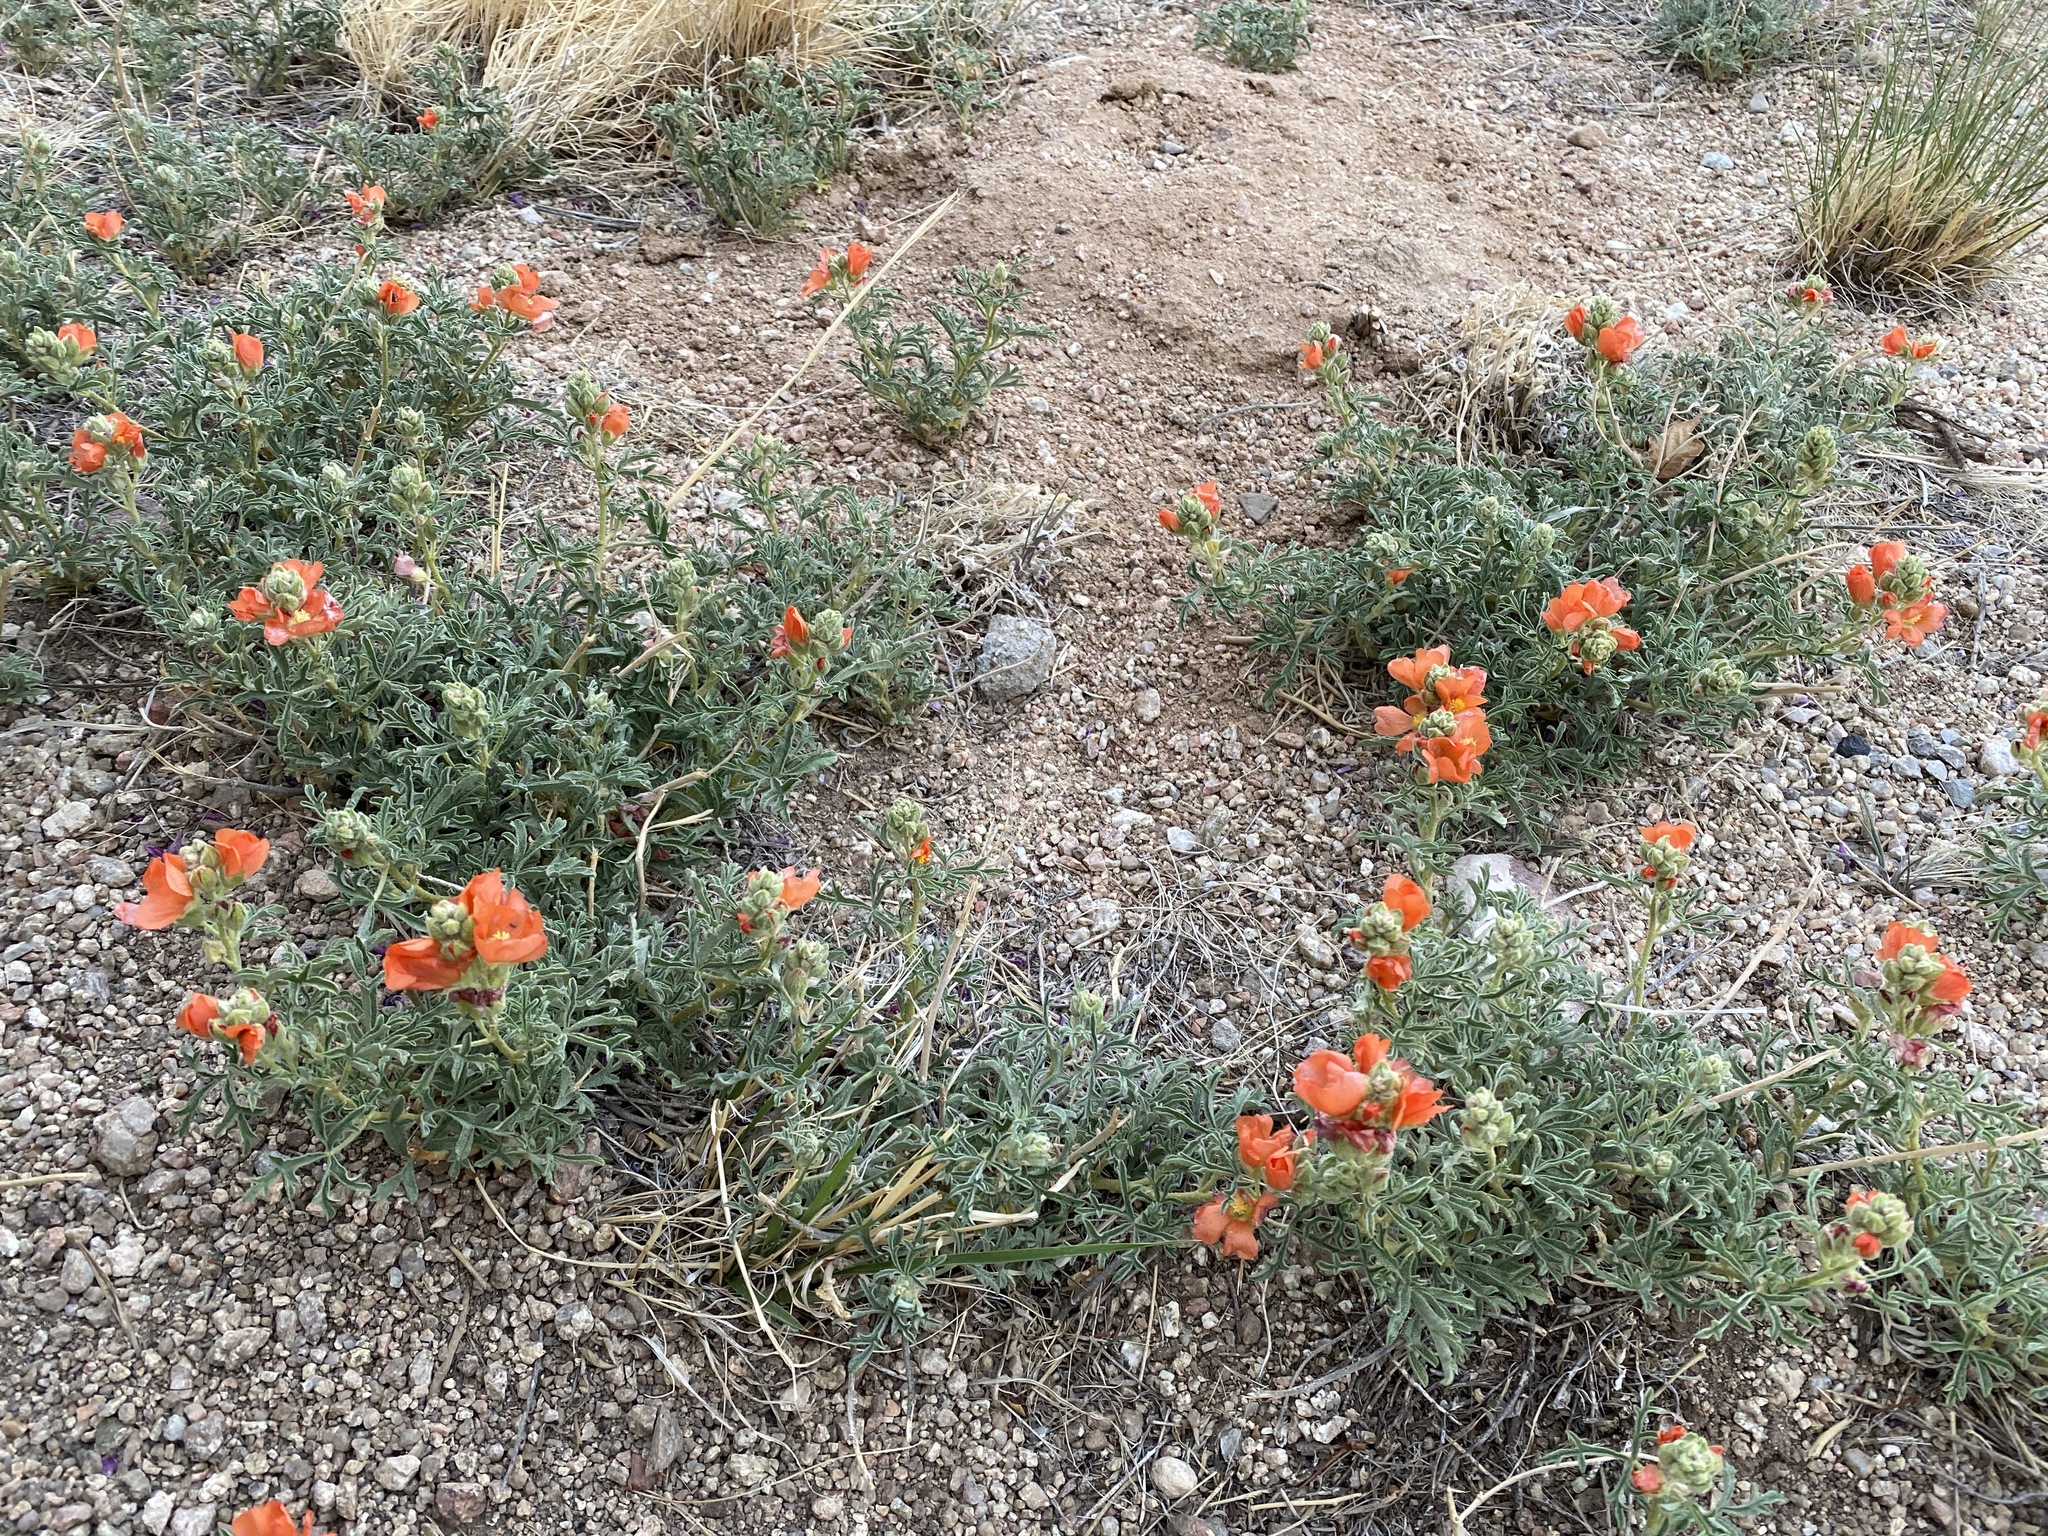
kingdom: Plantae
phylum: Tracheophyta
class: Magnoliopsida
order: Malvales
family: Malvaceae
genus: Sphaeralcea
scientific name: Sphaeralcea coccinea
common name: Moss-rose
